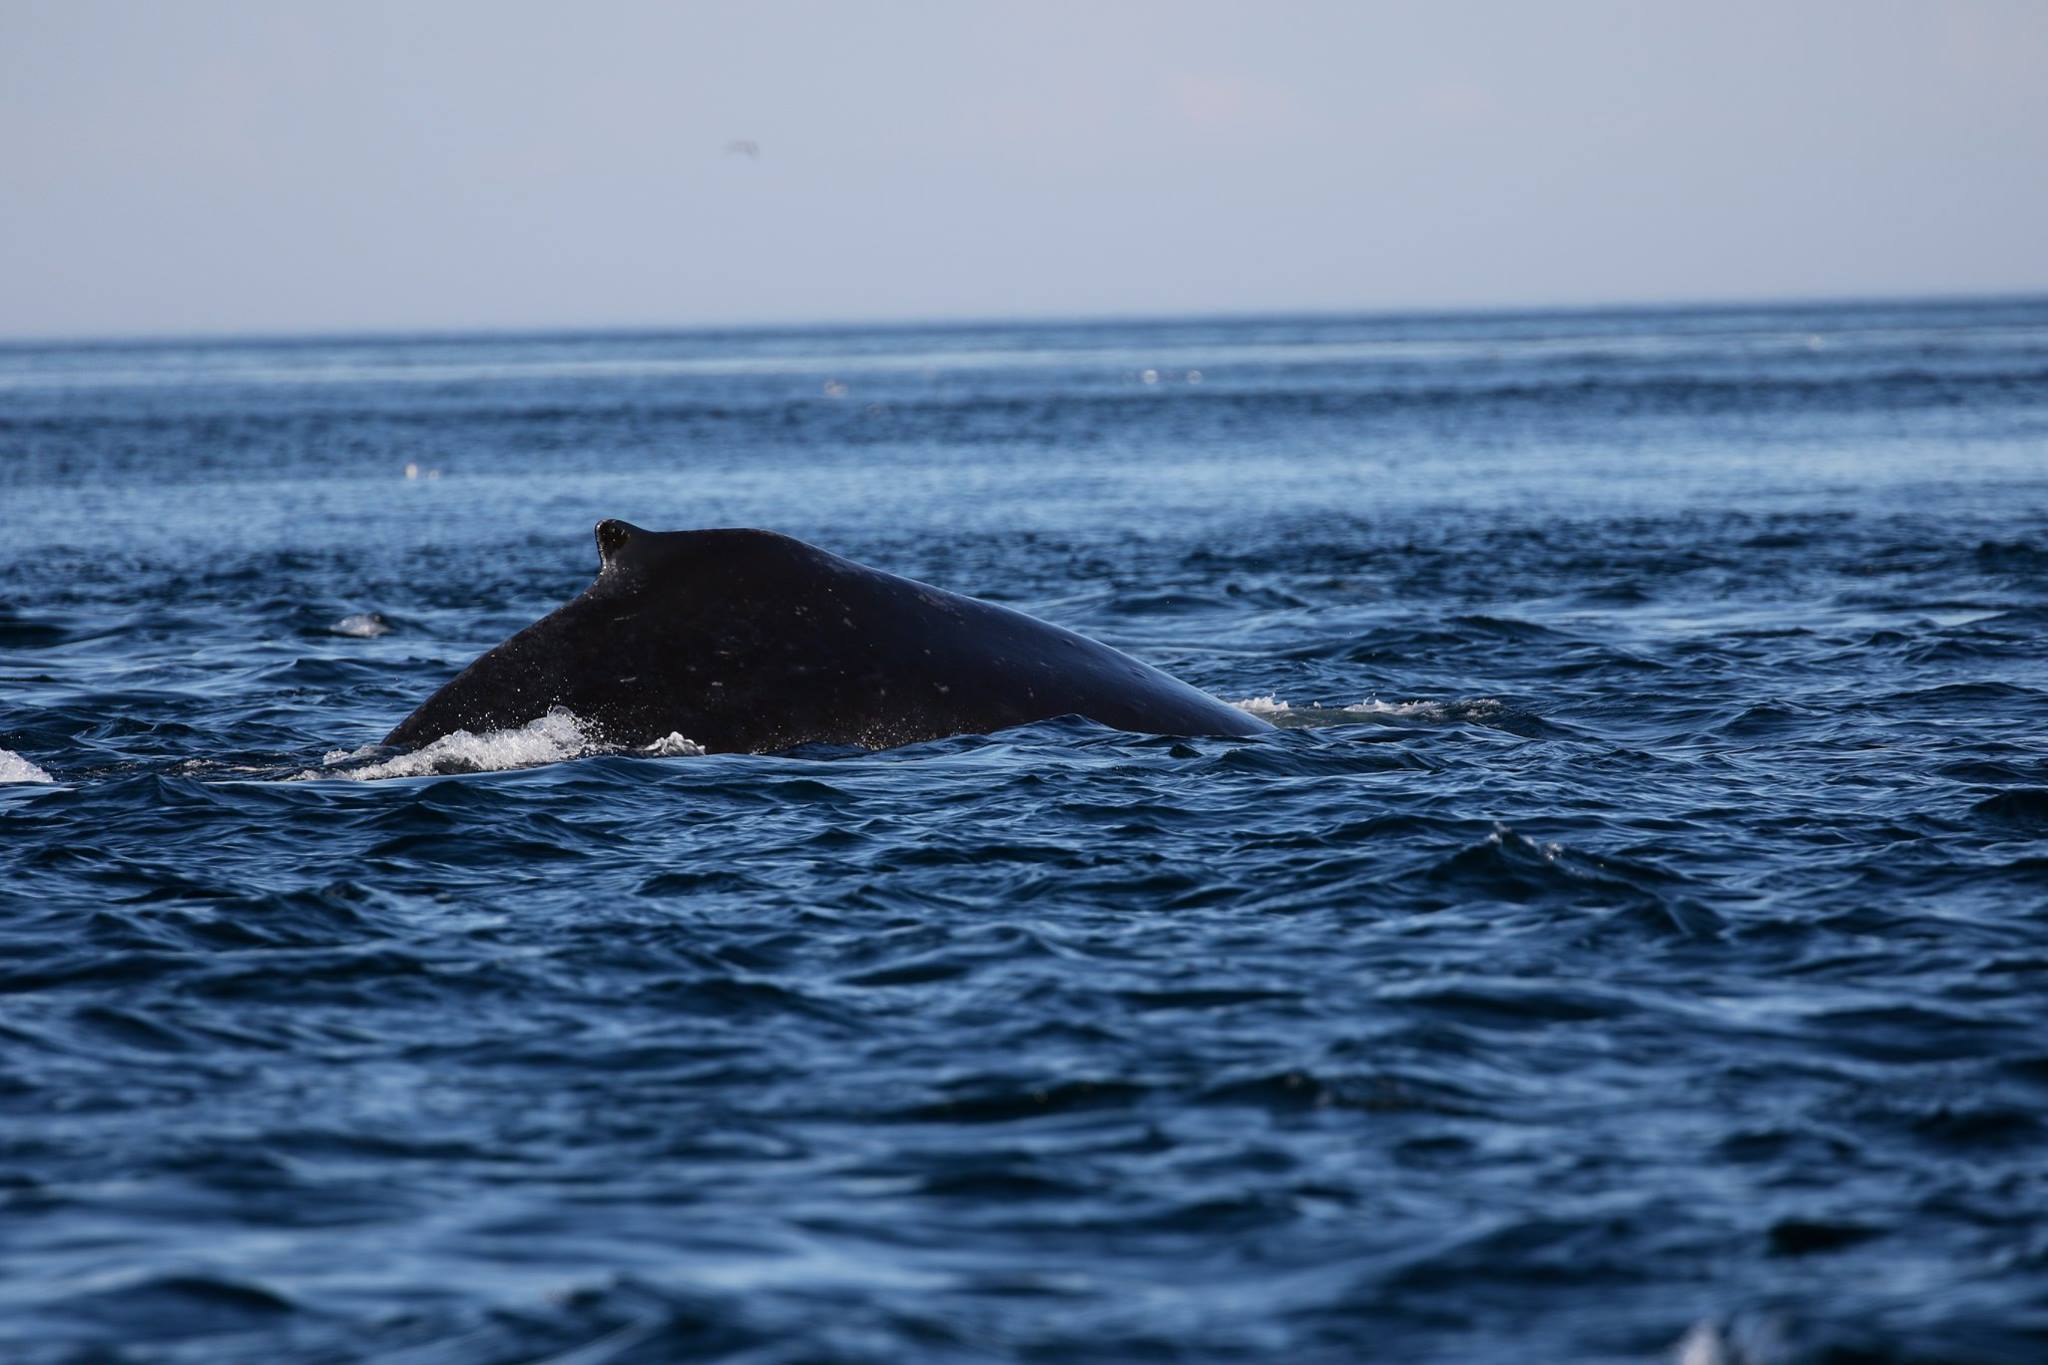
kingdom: Animalia
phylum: Chordata
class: Mammalia
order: Cetacea
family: Balaenopteridae
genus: Megaptera
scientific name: Megaptera novaeangliae
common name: Humpback whale
